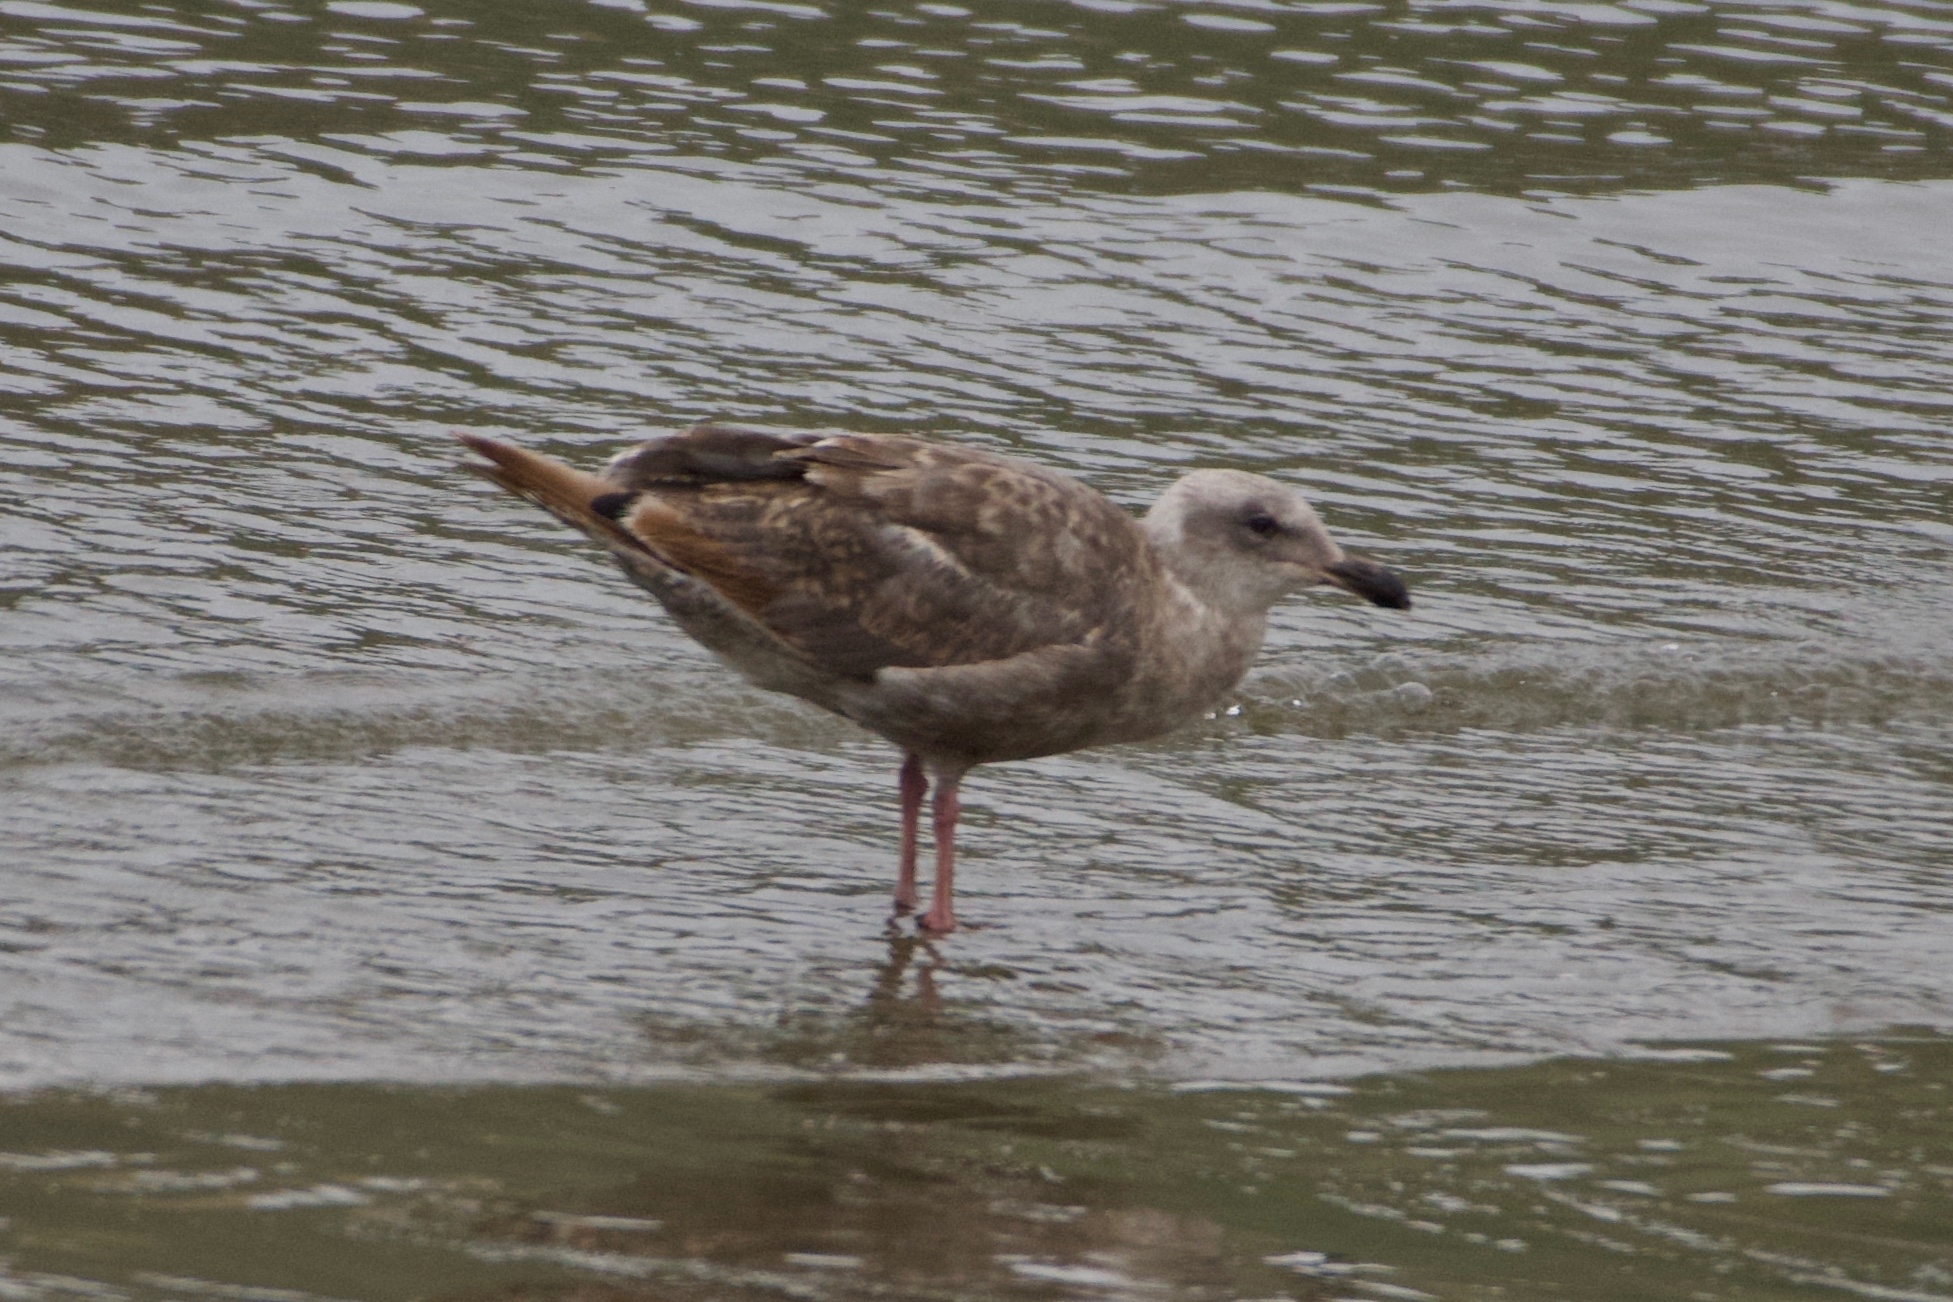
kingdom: Animalia
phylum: Chordata
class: Aves
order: Charadriiformes
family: Laridae
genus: Larus
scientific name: Larus occidentalis
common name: Western gull
